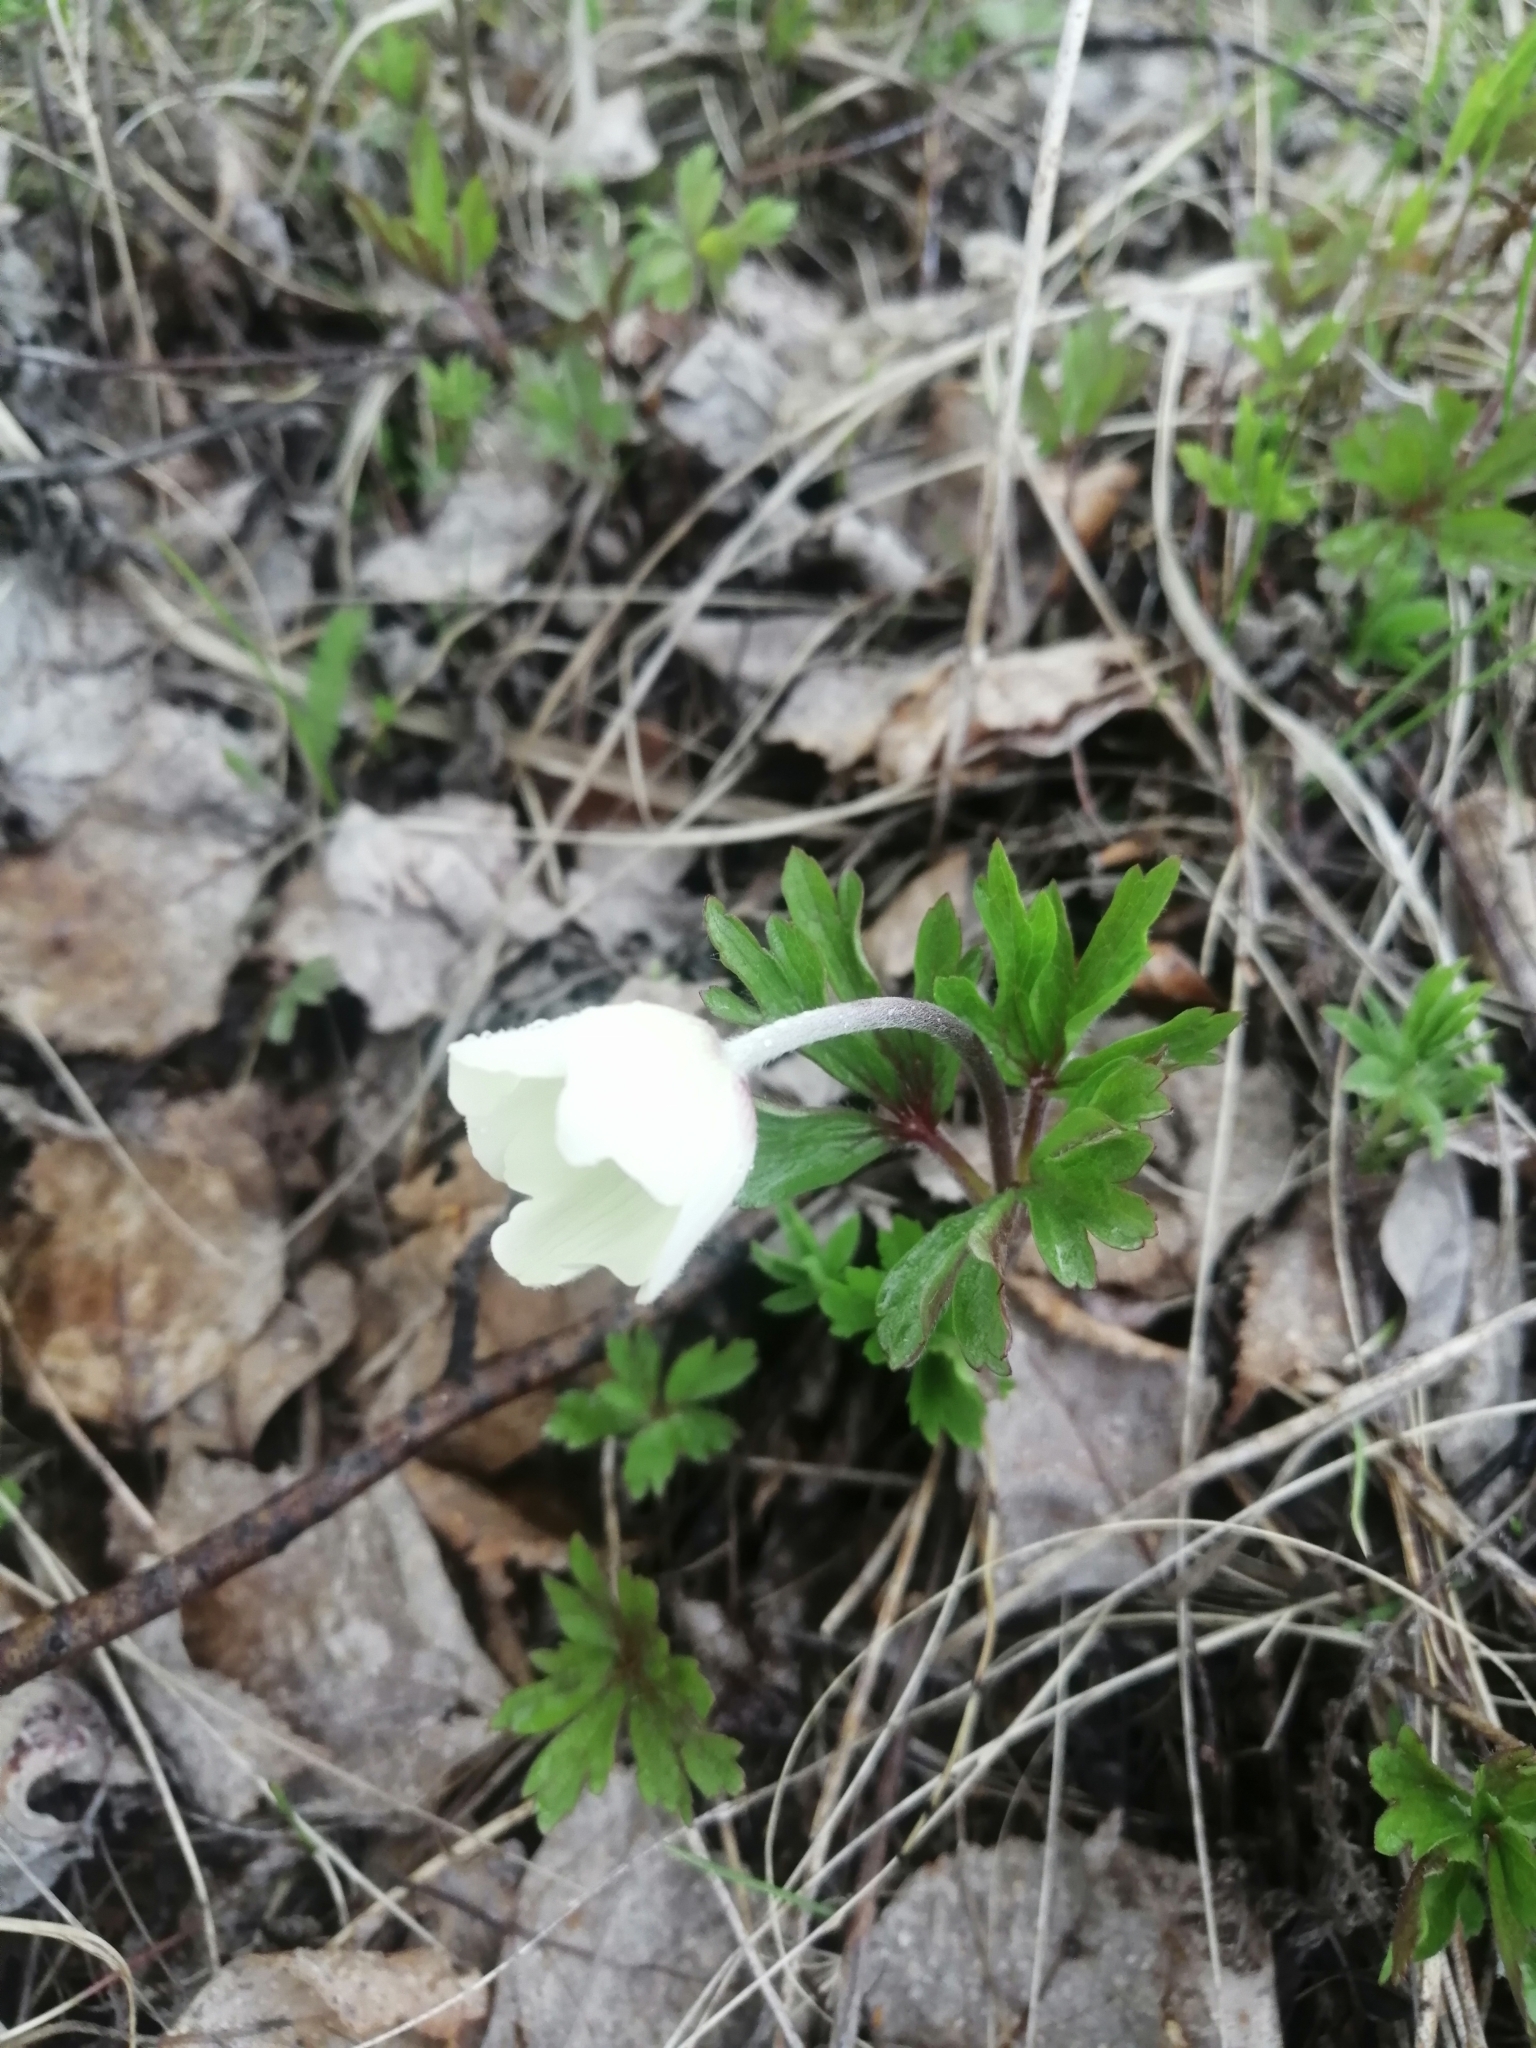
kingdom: Plantae
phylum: Tracheophyta
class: Magnoliopsida
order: Ranunculales
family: Ranunculaceae
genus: Anemone
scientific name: Anemone sylvestris
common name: Snowdrop anemone
